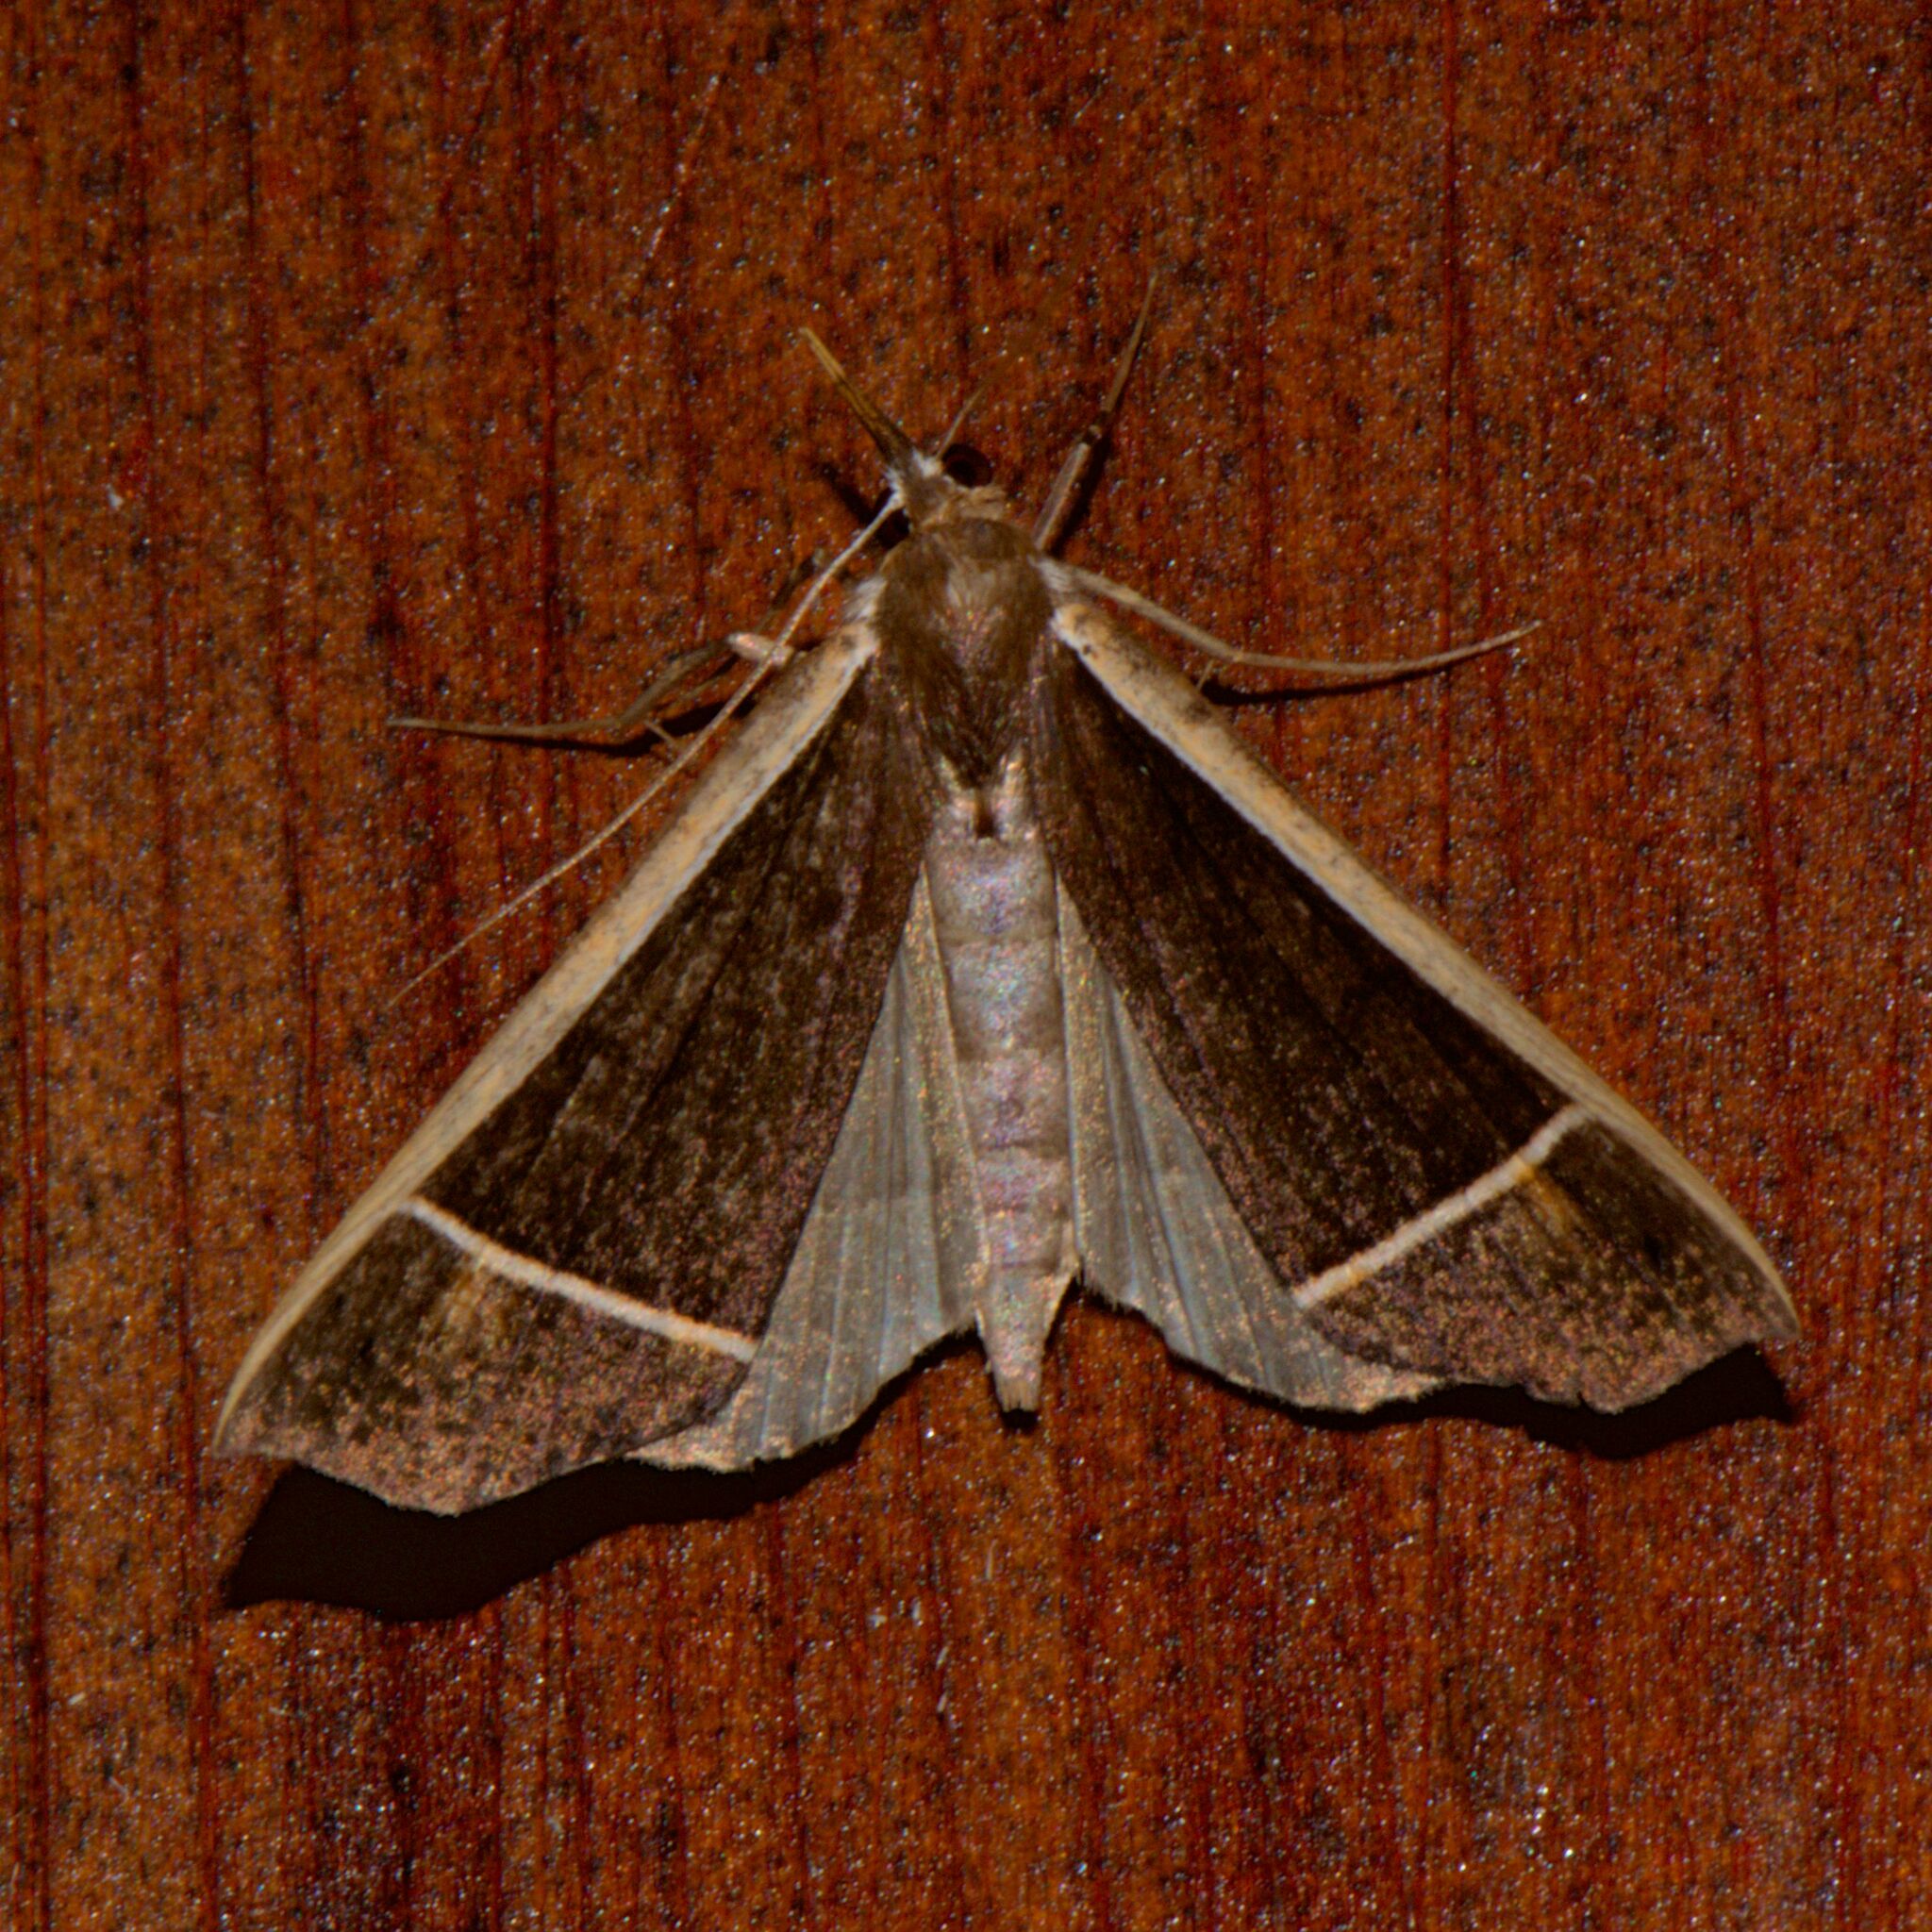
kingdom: Animalia
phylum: Arthropoda
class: Insecta
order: Lepidoptera
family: Erebidae
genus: Anoratha
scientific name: Anoratha costalis
